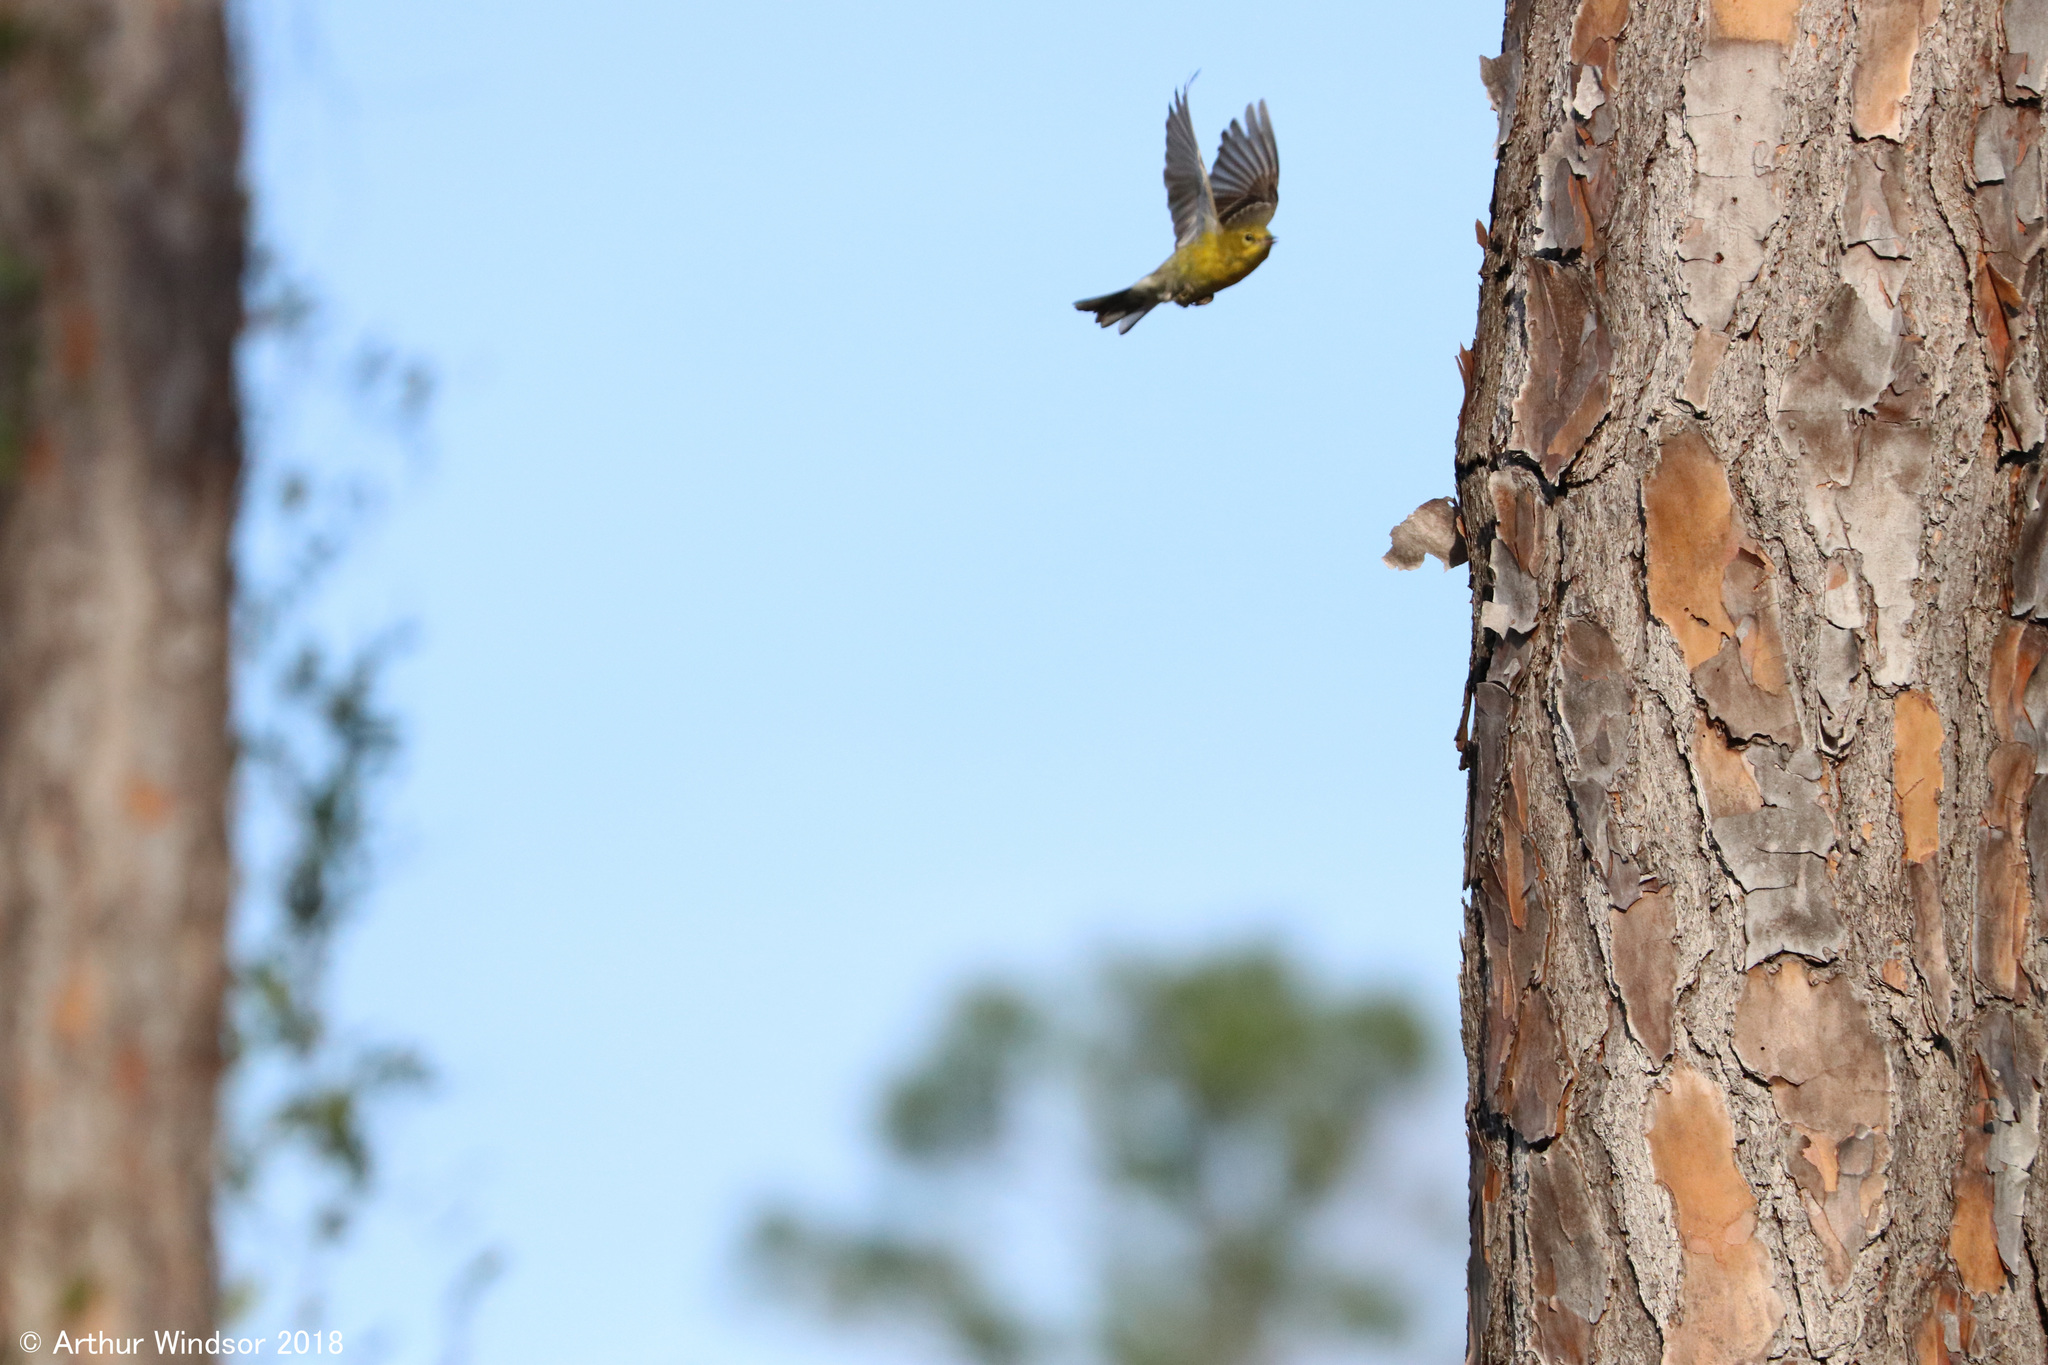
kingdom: Animalia
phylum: Chordata
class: Aves
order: Passeriformes
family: Parulidae
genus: Setophaga
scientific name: Setophaga pinus
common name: Pine warbler
